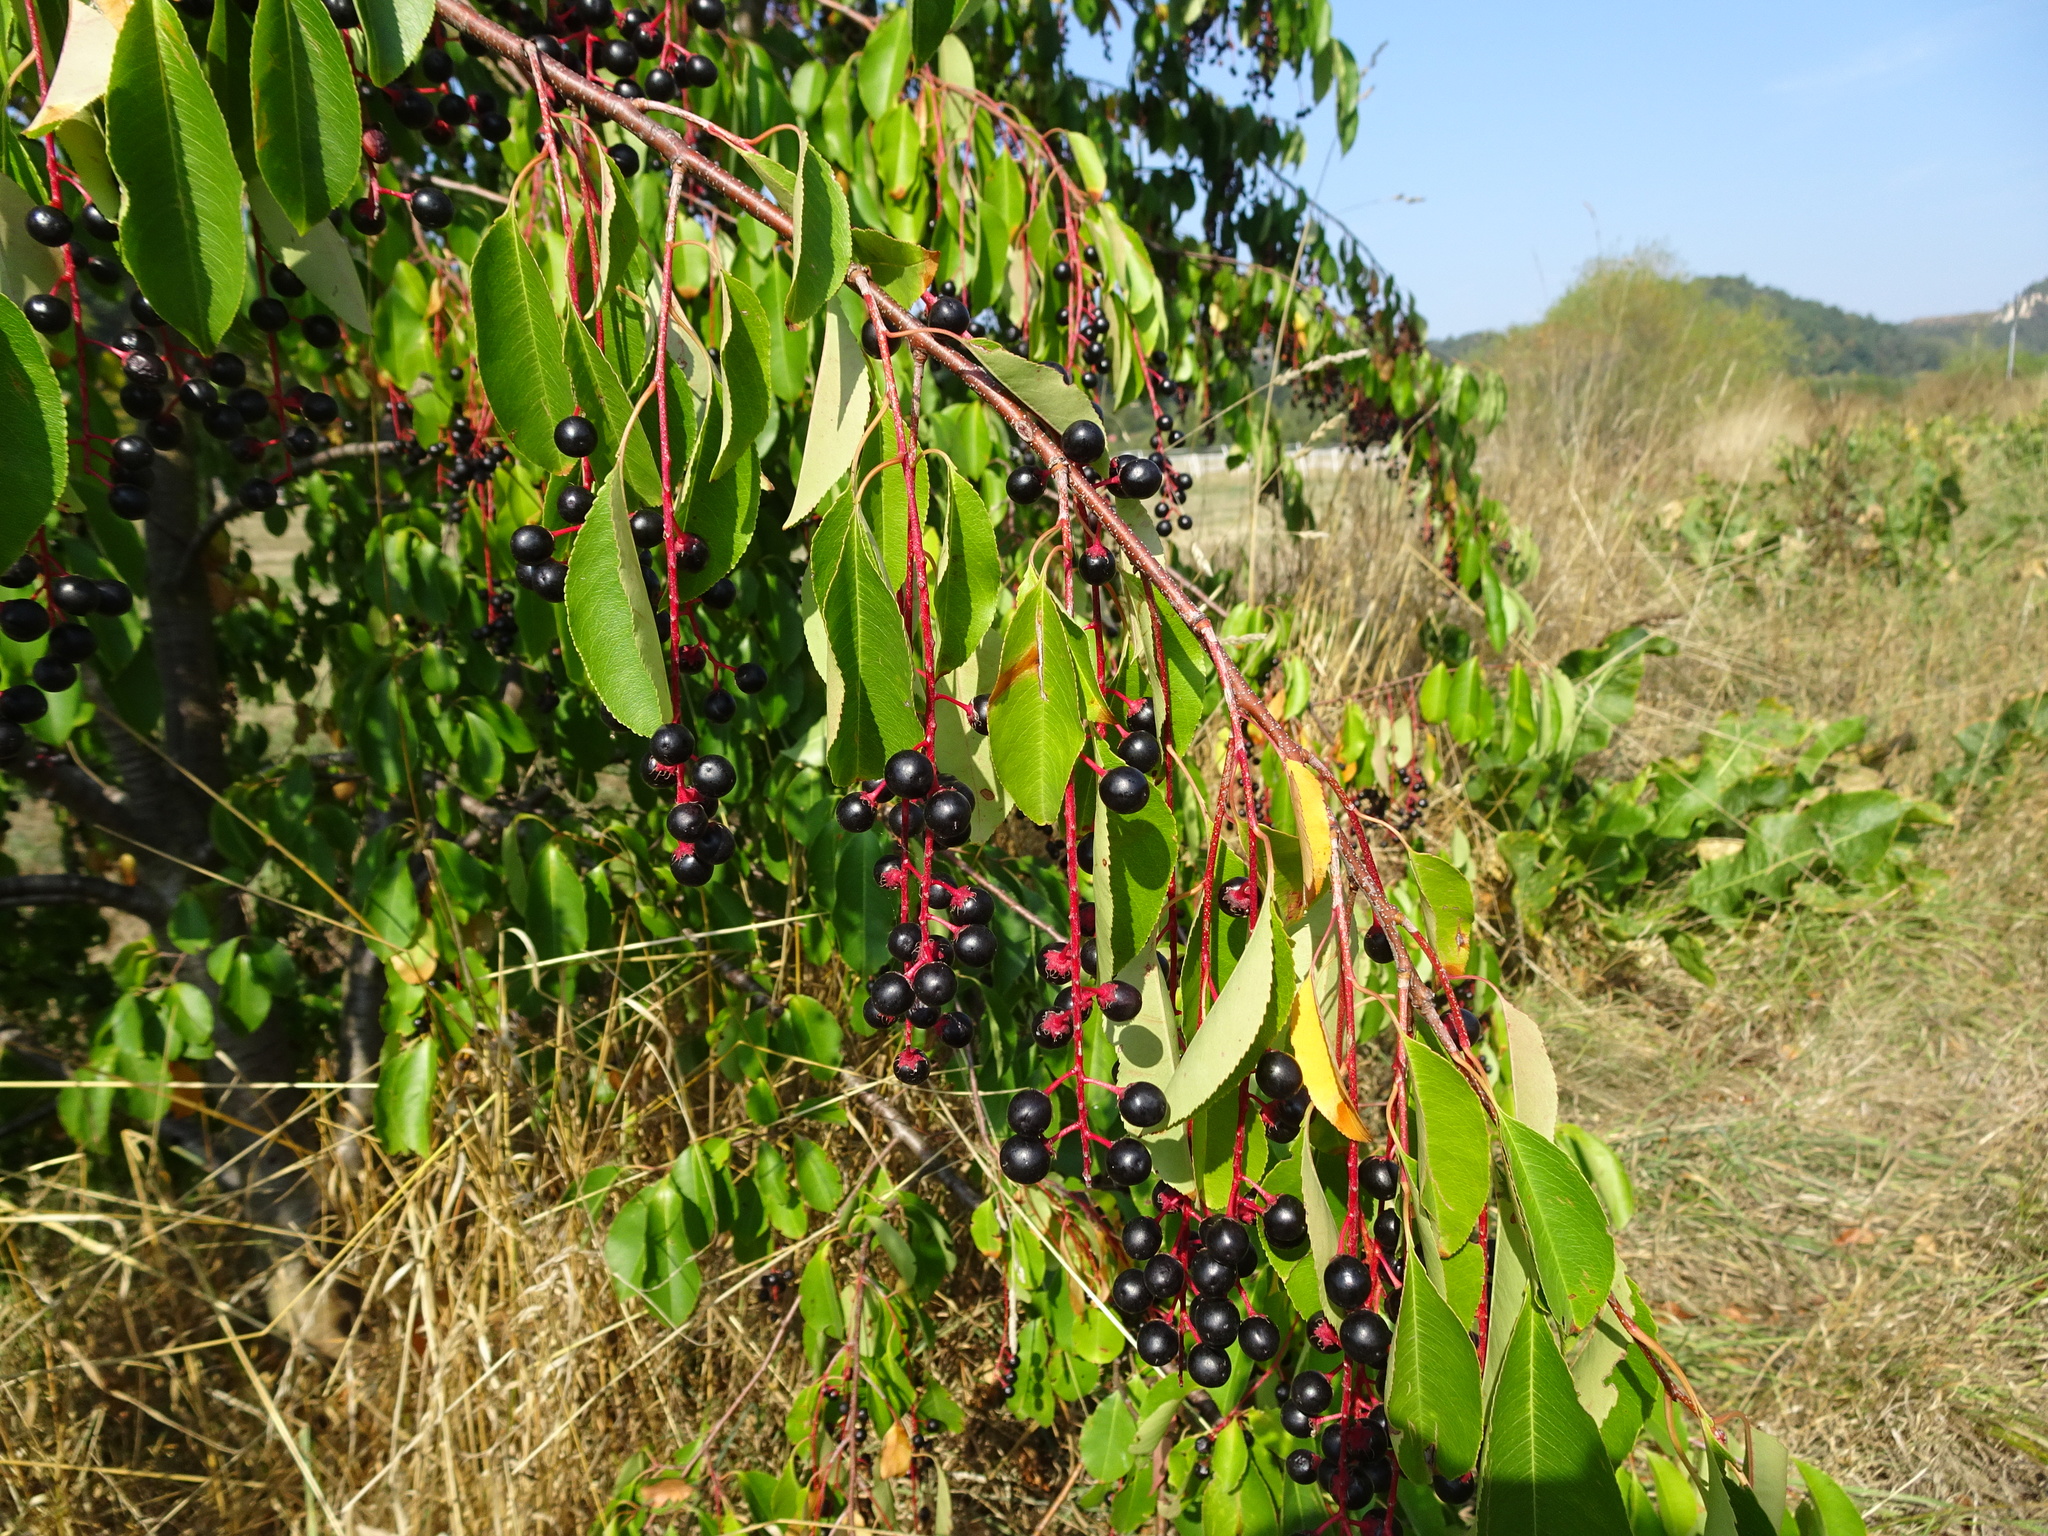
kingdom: Plantae
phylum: Tracheophyta
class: Magnoliopsida
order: Rosales
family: Rosaceae
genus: Prunus
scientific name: Prunus serotina
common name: Black cherry
